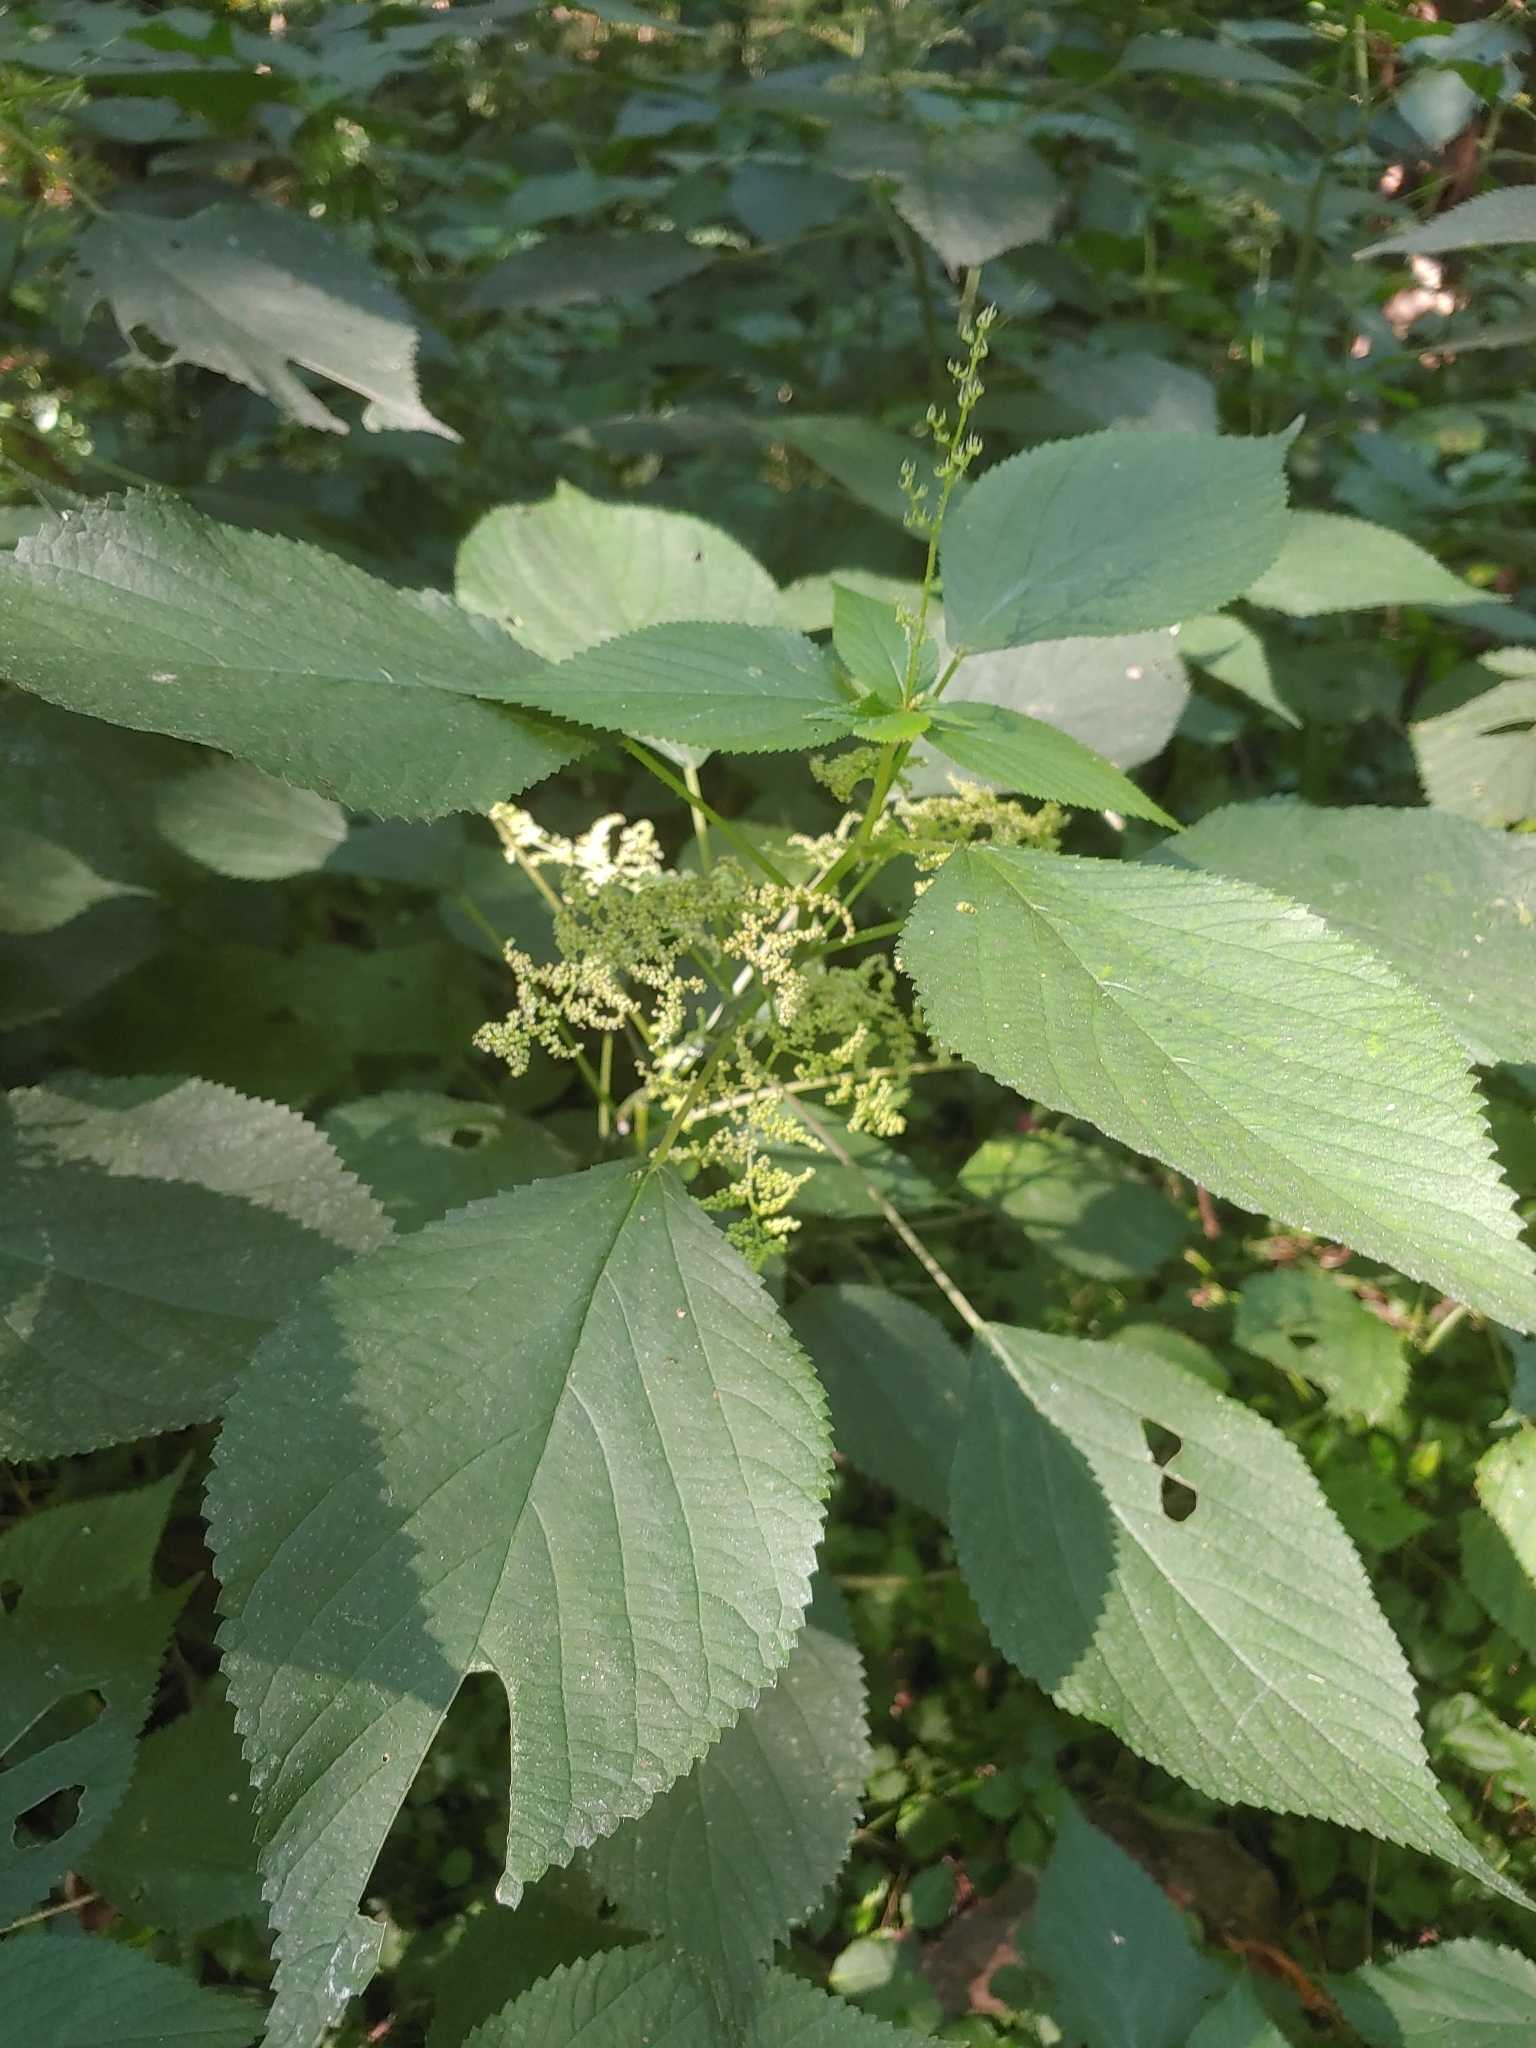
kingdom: Plantae
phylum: Tracheophyta
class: Magnoliopsida
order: Rosales
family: Urticaceae
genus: Laportea
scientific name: Laportea canadensis
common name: Canada nettle
